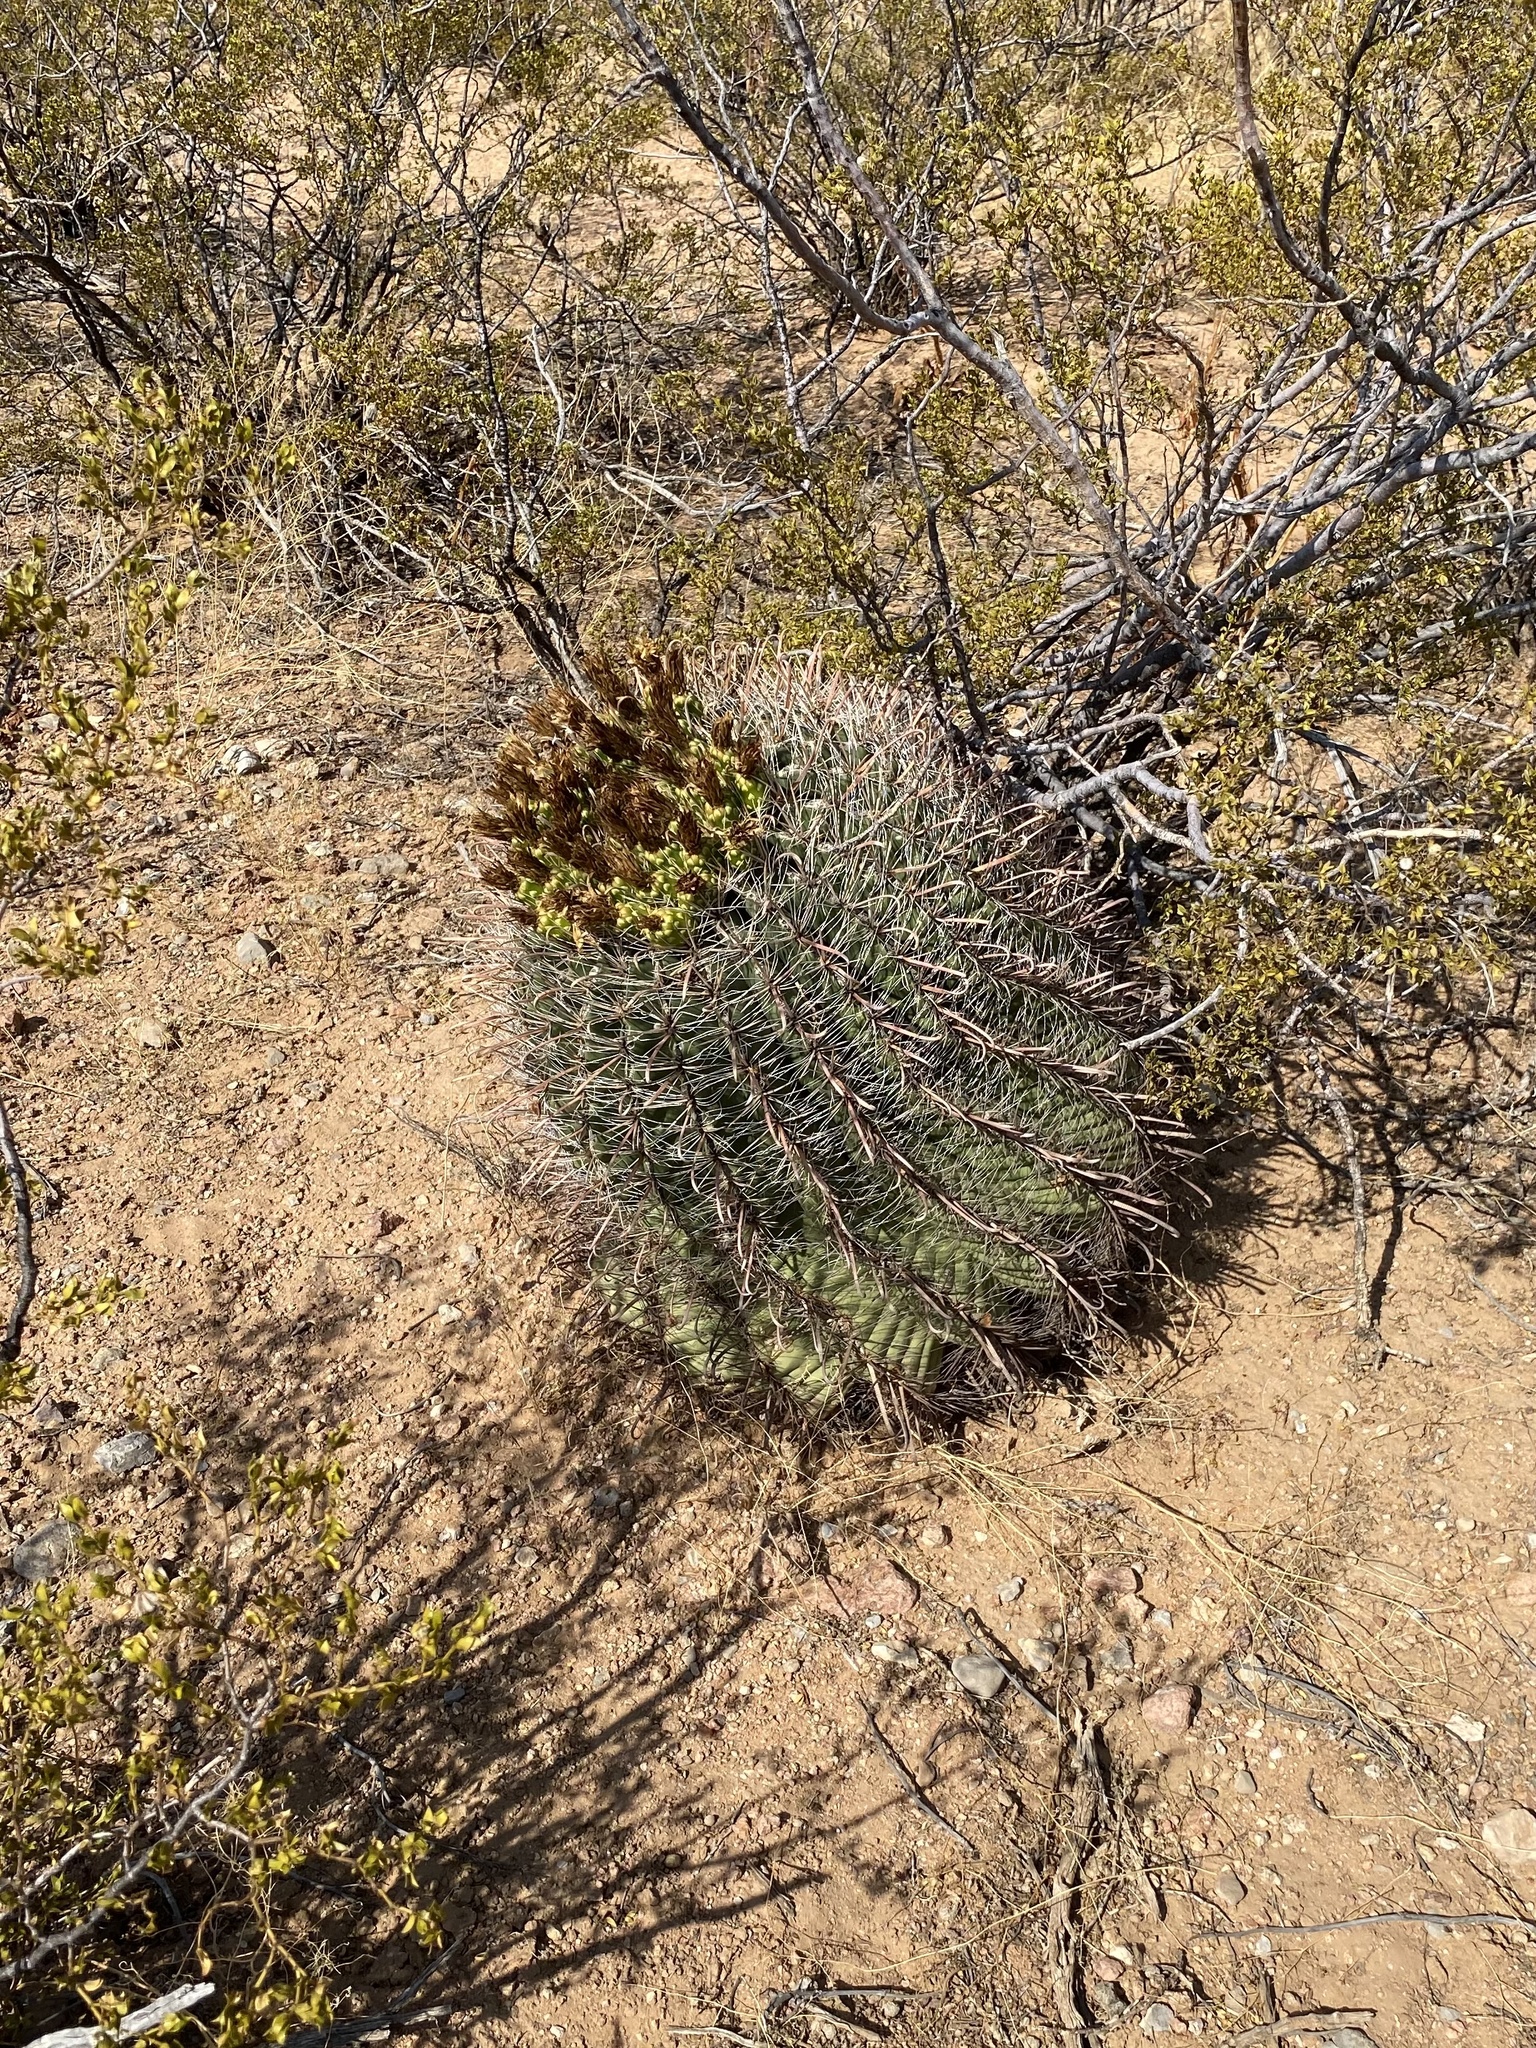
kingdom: Plantae
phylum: Tracheophyta
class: Magnoliopsida
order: Caryophyllales
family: Cactaceae
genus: Ferocactus
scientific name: Ferocactus wislizeni
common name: Candy barrel cactus
